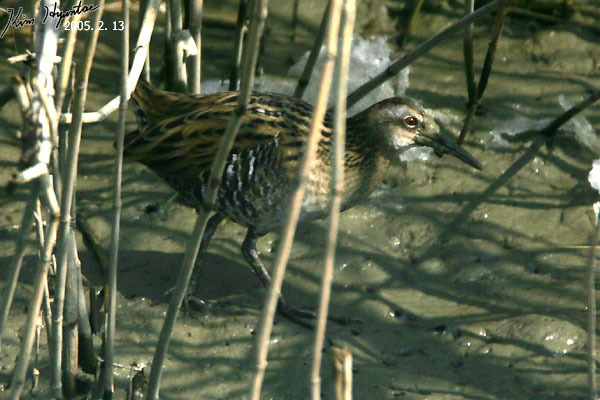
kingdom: Animalia
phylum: Chordata
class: Aves
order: Gruiformes
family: Rallidae
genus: Rallus
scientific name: Rallus indicus
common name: Brown-cheeked rail
